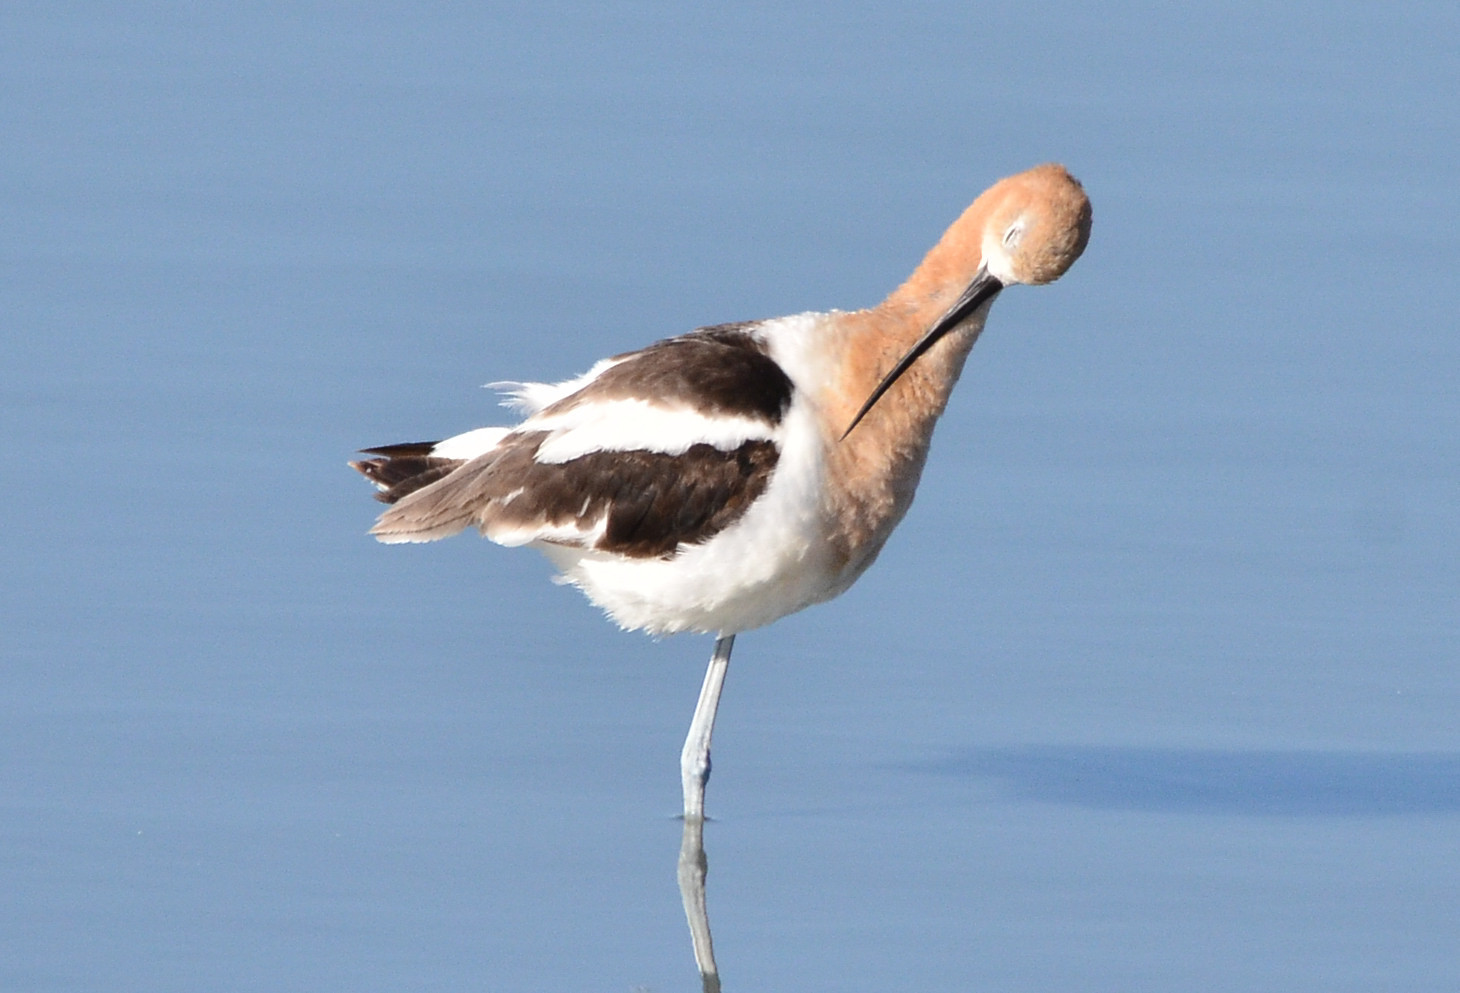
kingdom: Animalia
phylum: Chordata
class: Aves
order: Charadriiformes
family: Recurvirostridae
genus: Recurvirostra
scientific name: Recurvirostra americana
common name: American avocet
